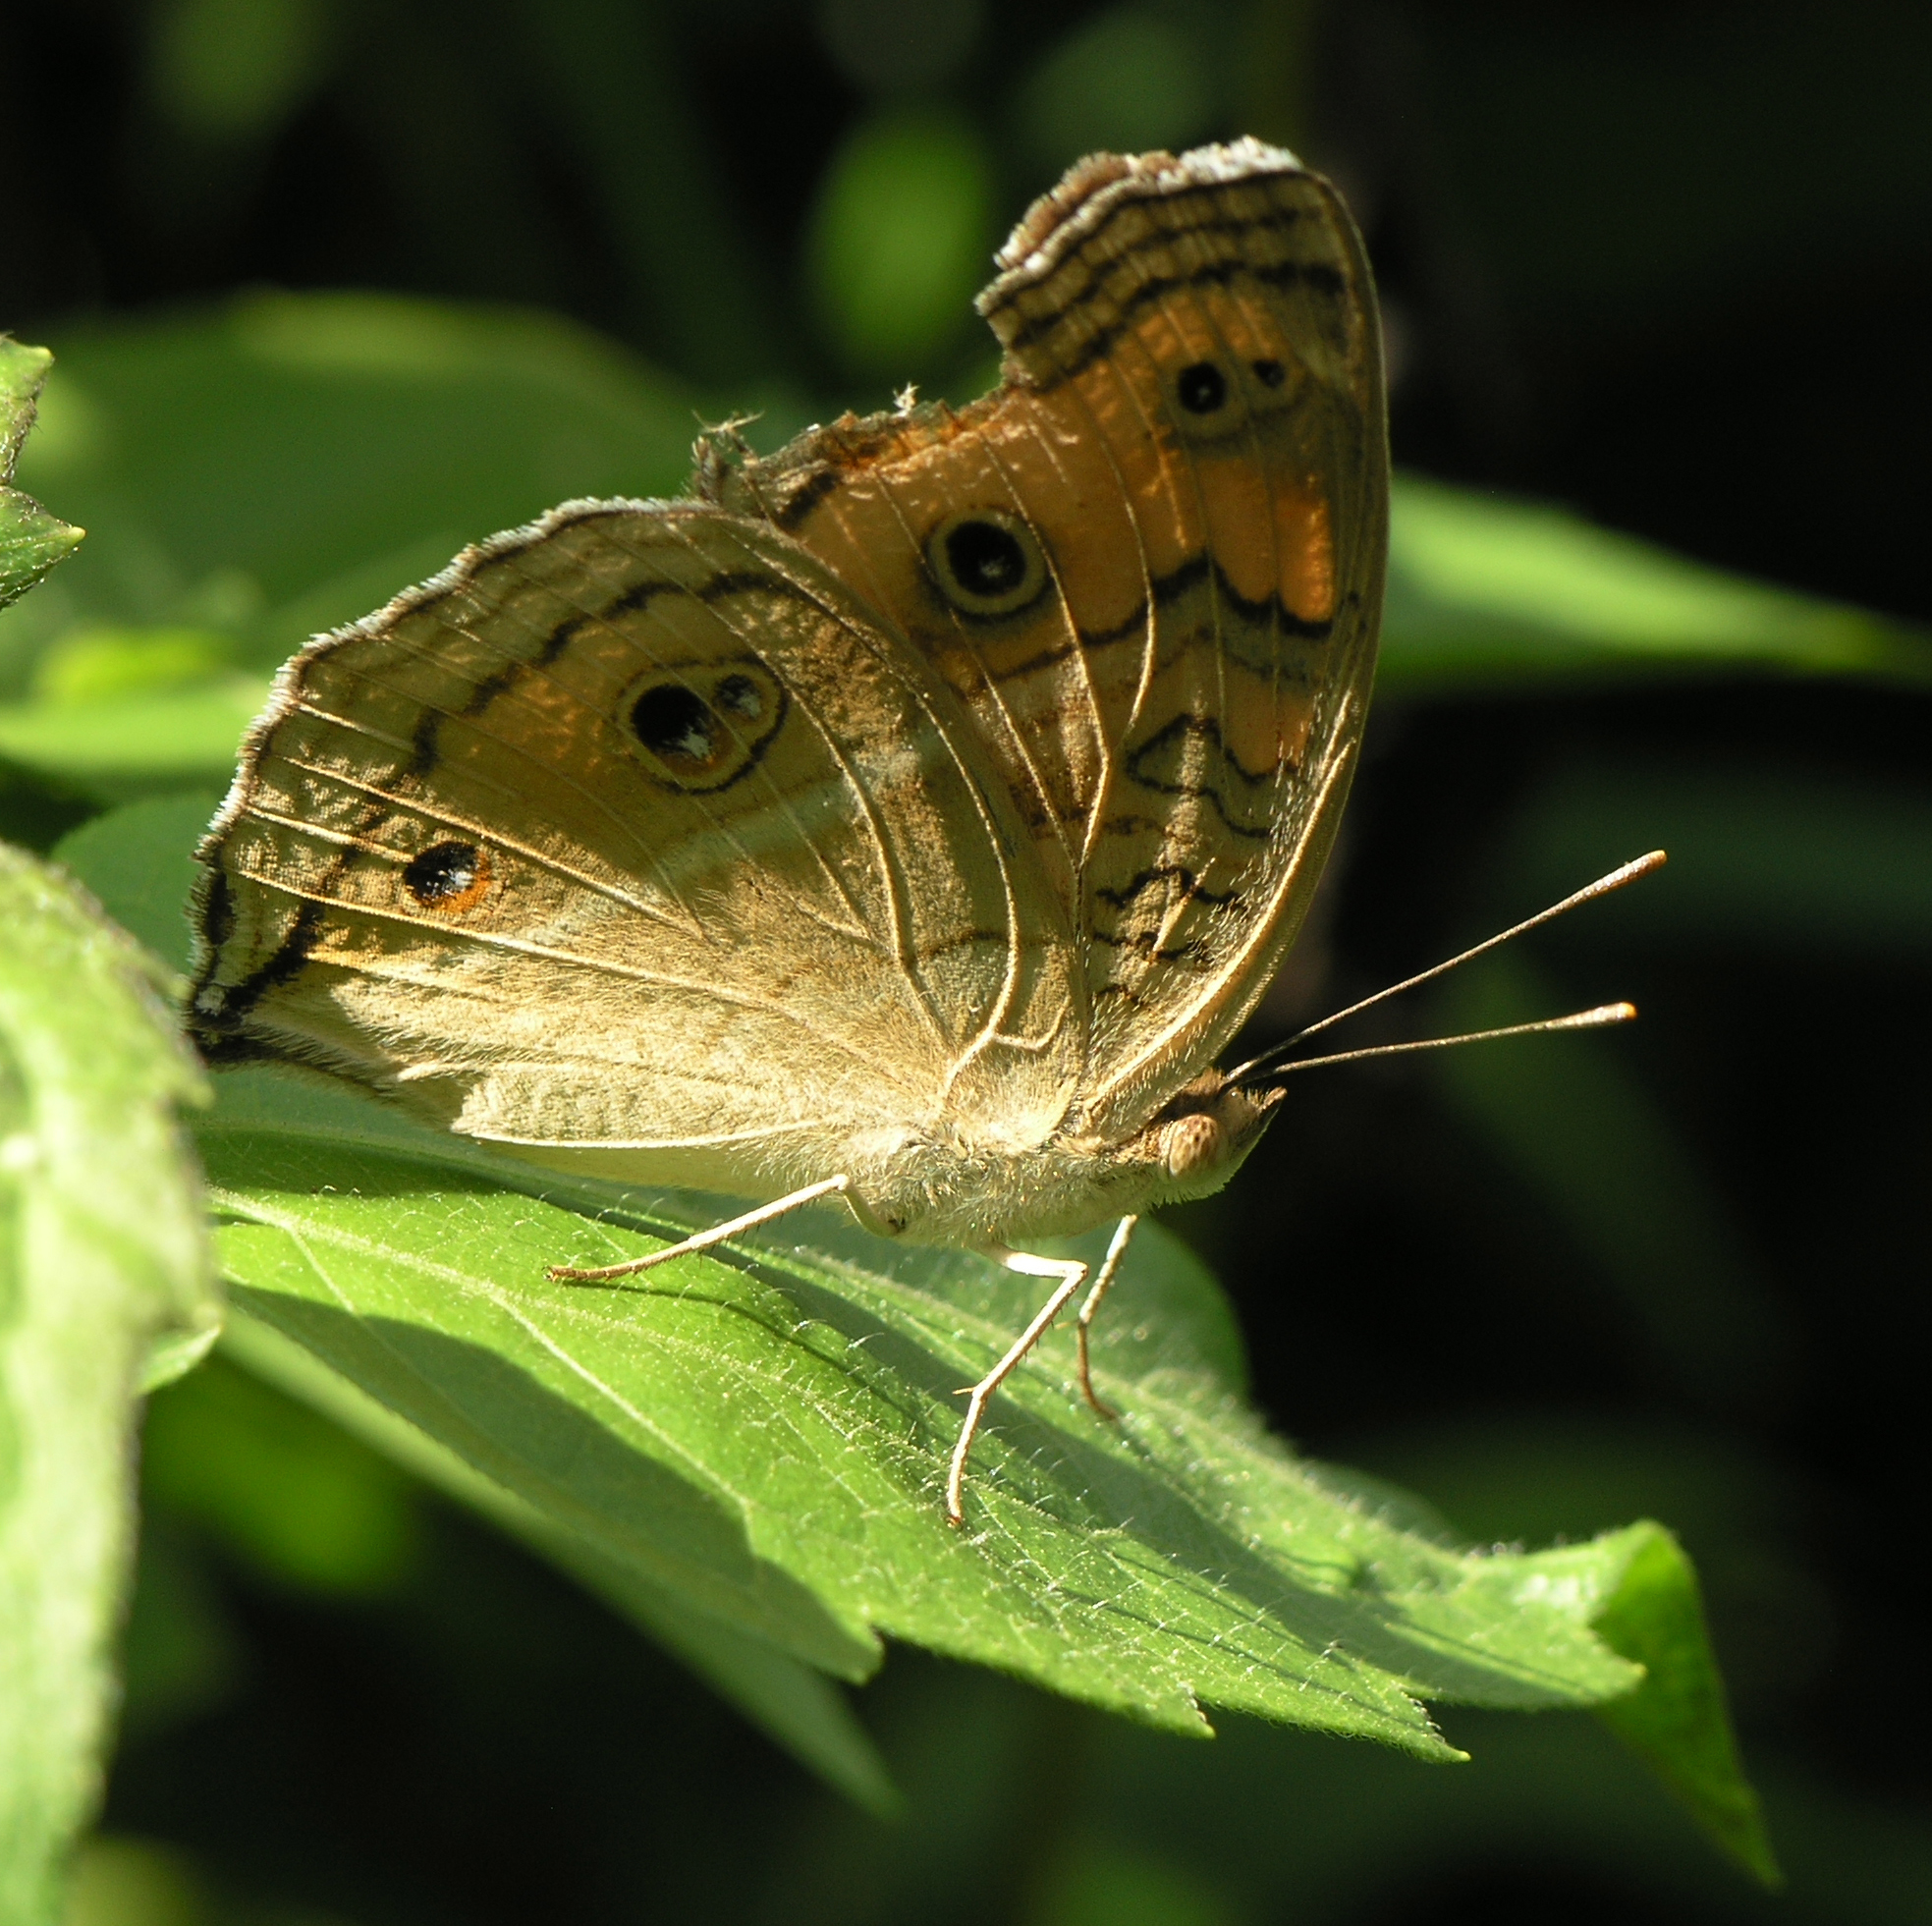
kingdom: Animalia
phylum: Arthropoda
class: Insecta
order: Lepidoptera
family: Nymphalidae
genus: Junonia
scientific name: Junonia almana
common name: Peacock pansy
